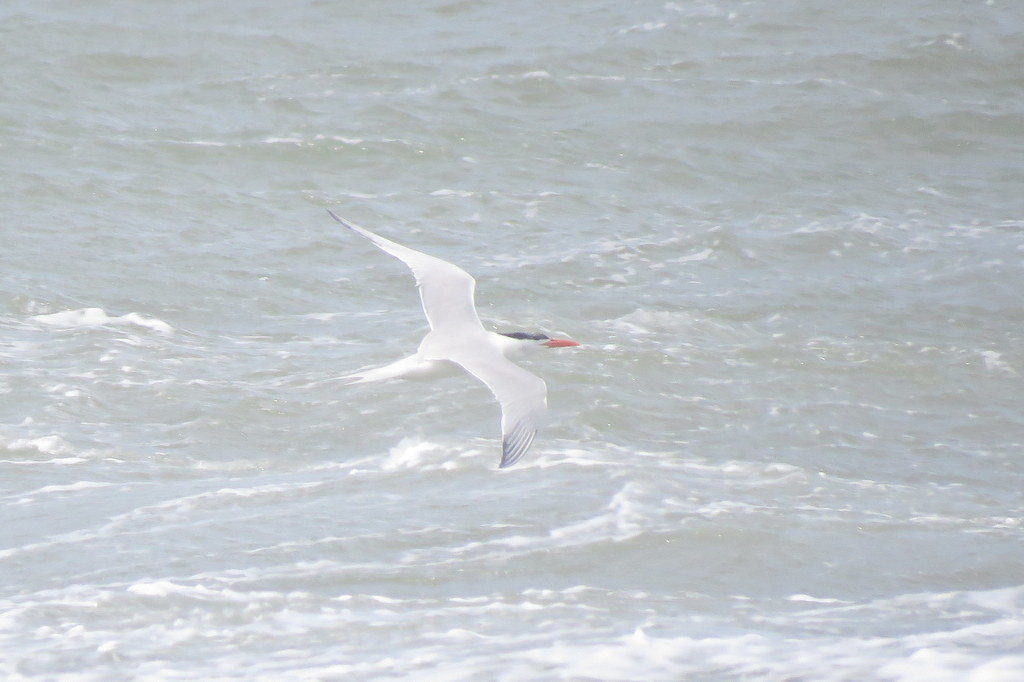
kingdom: Animalia
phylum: Chordata
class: Aves
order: Charadriiformes
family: Laridae
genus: Thalasseus
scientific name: Thalasseus maximus
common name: Royal tern
